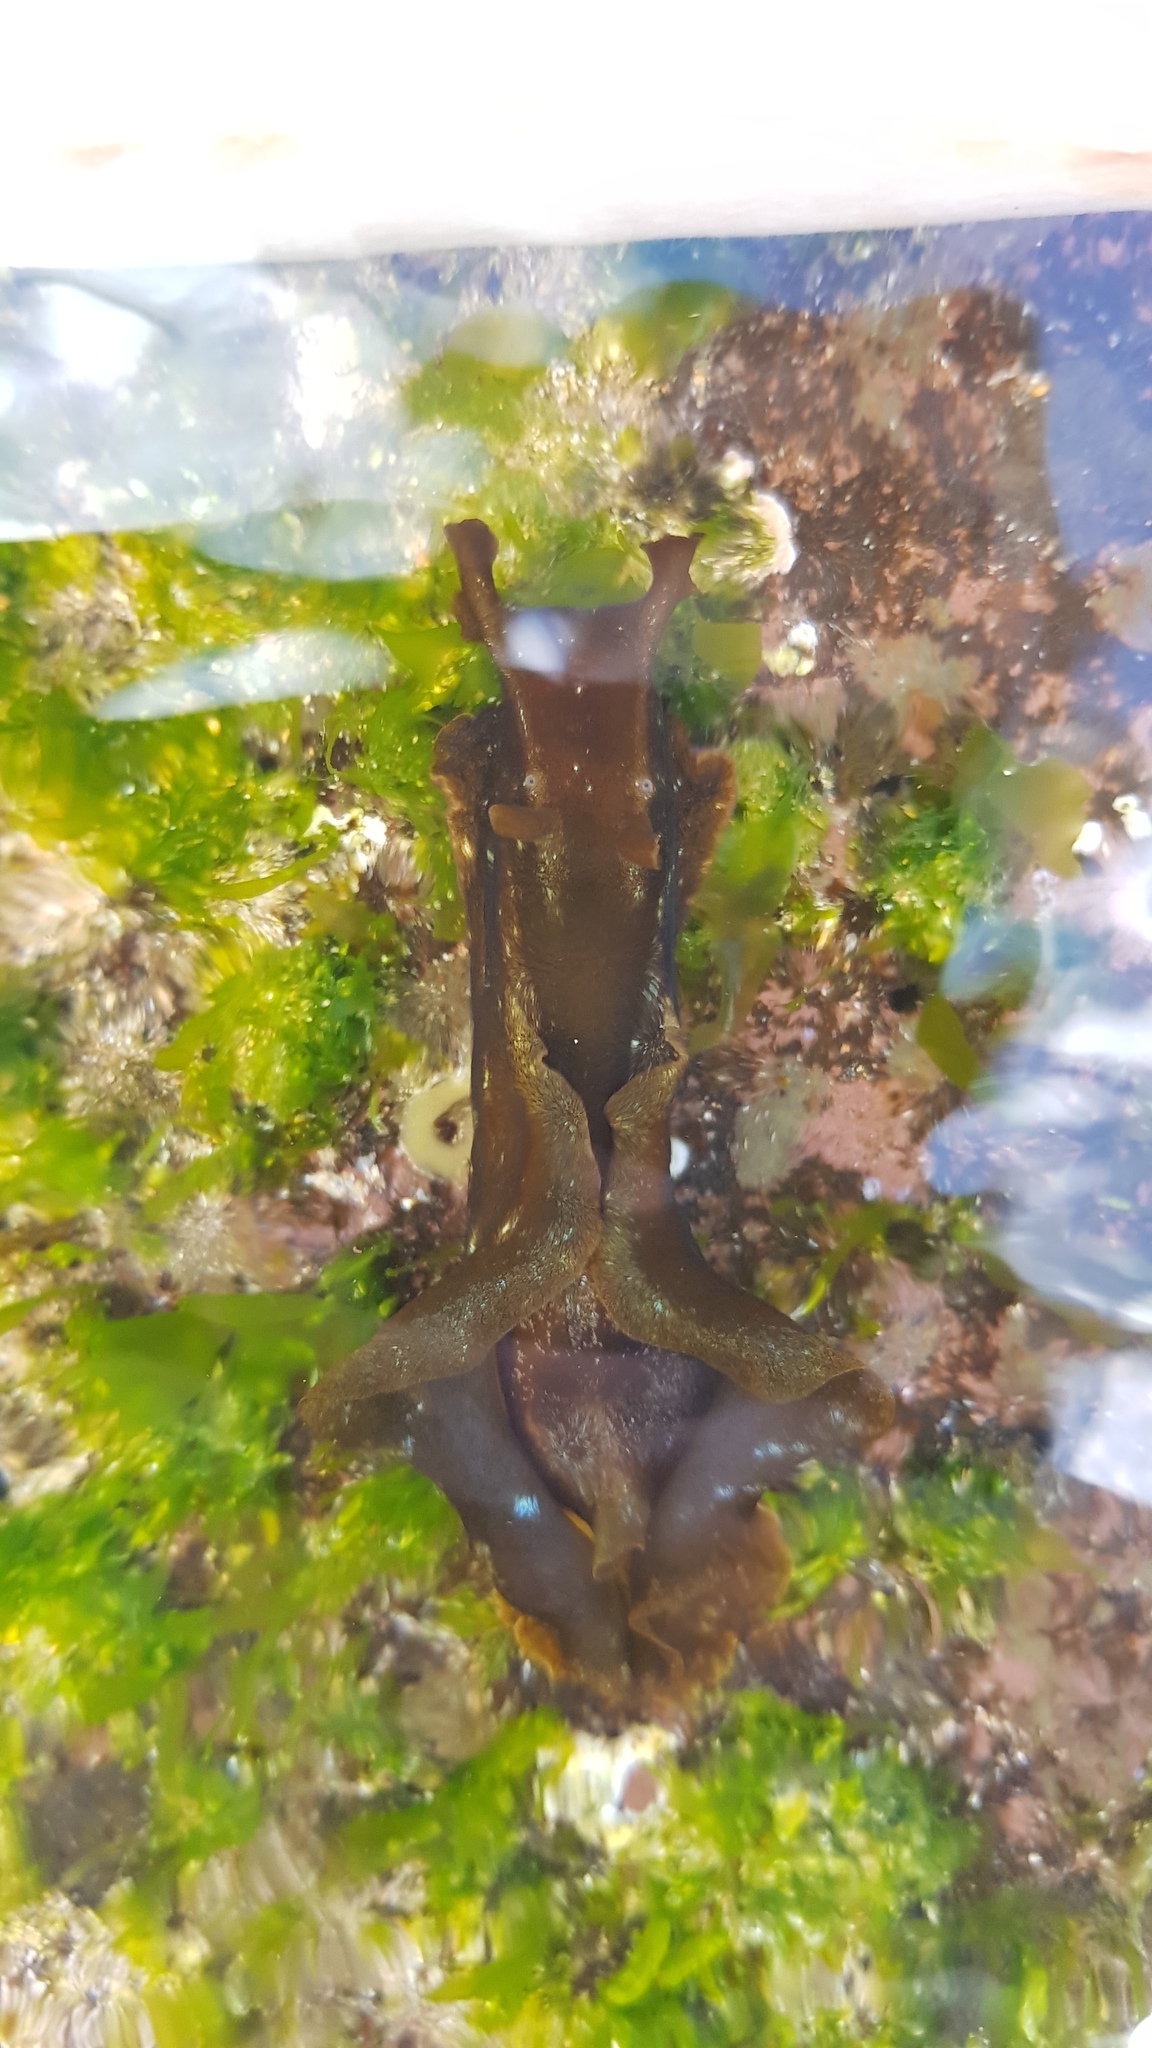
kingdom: Animalia
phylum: Mollusca
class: Gastropoda
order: Aplysiida
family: Aplysiidae
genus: Aplysia
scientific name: Aplysia juliana
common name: Walking sea hare
